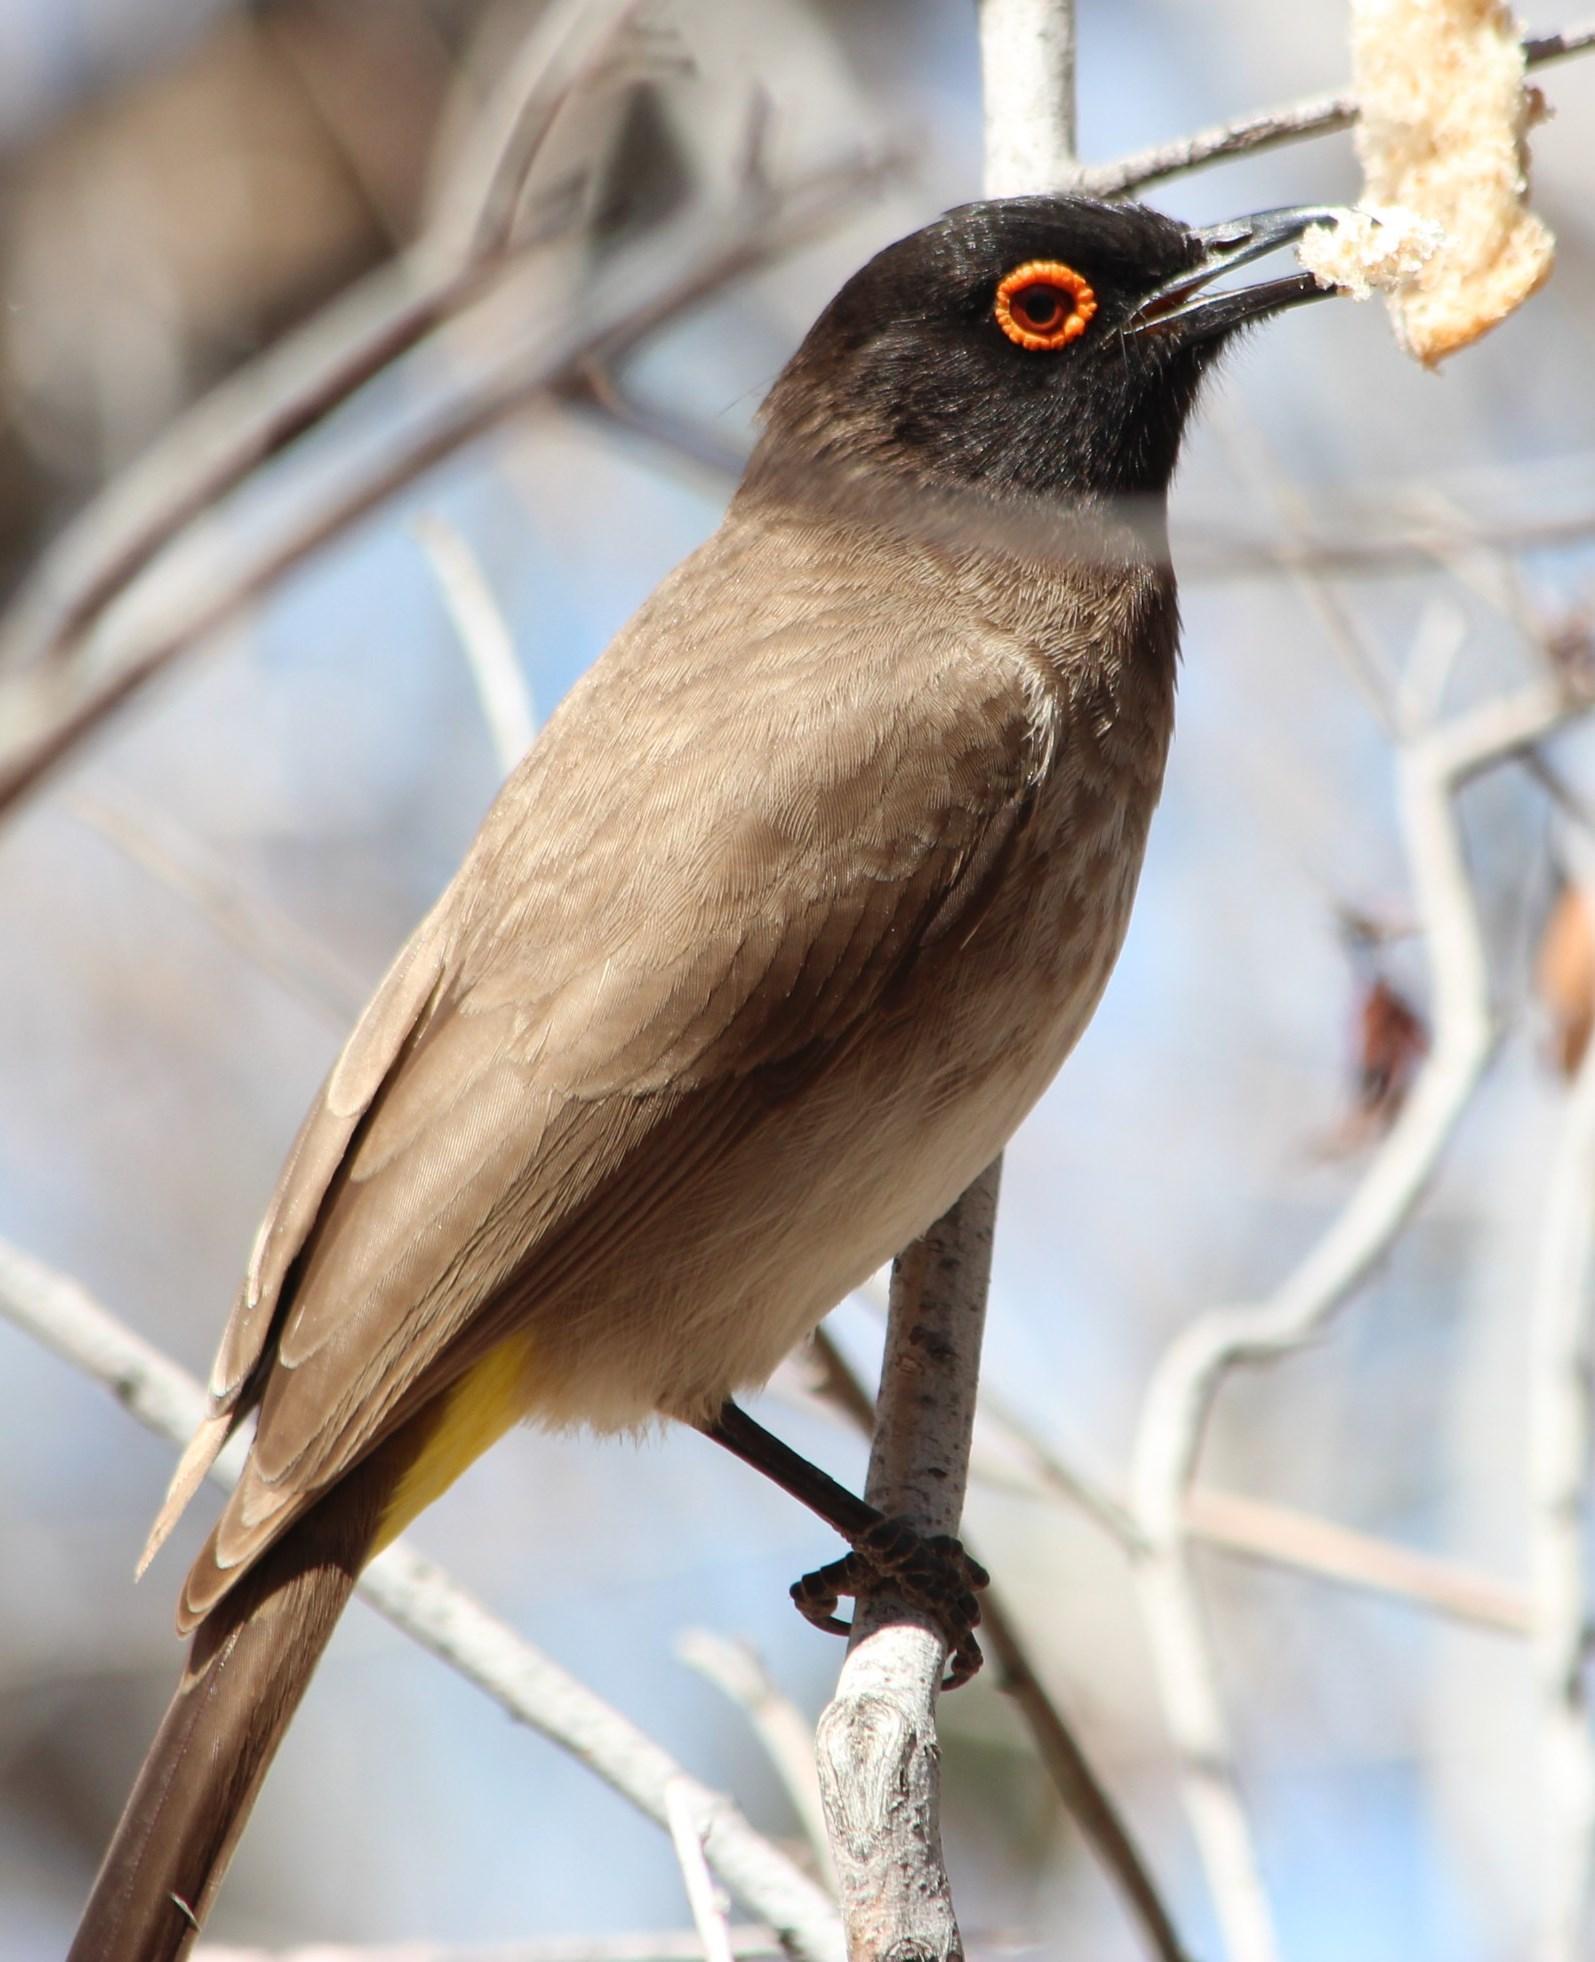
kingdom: Animalia
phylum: Chordata
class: Aves
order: Passeriformes
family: Pycnonotidae
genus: Pycnonotus
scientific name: Pycnonotus nigricans
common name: African red-eyed bulbul
